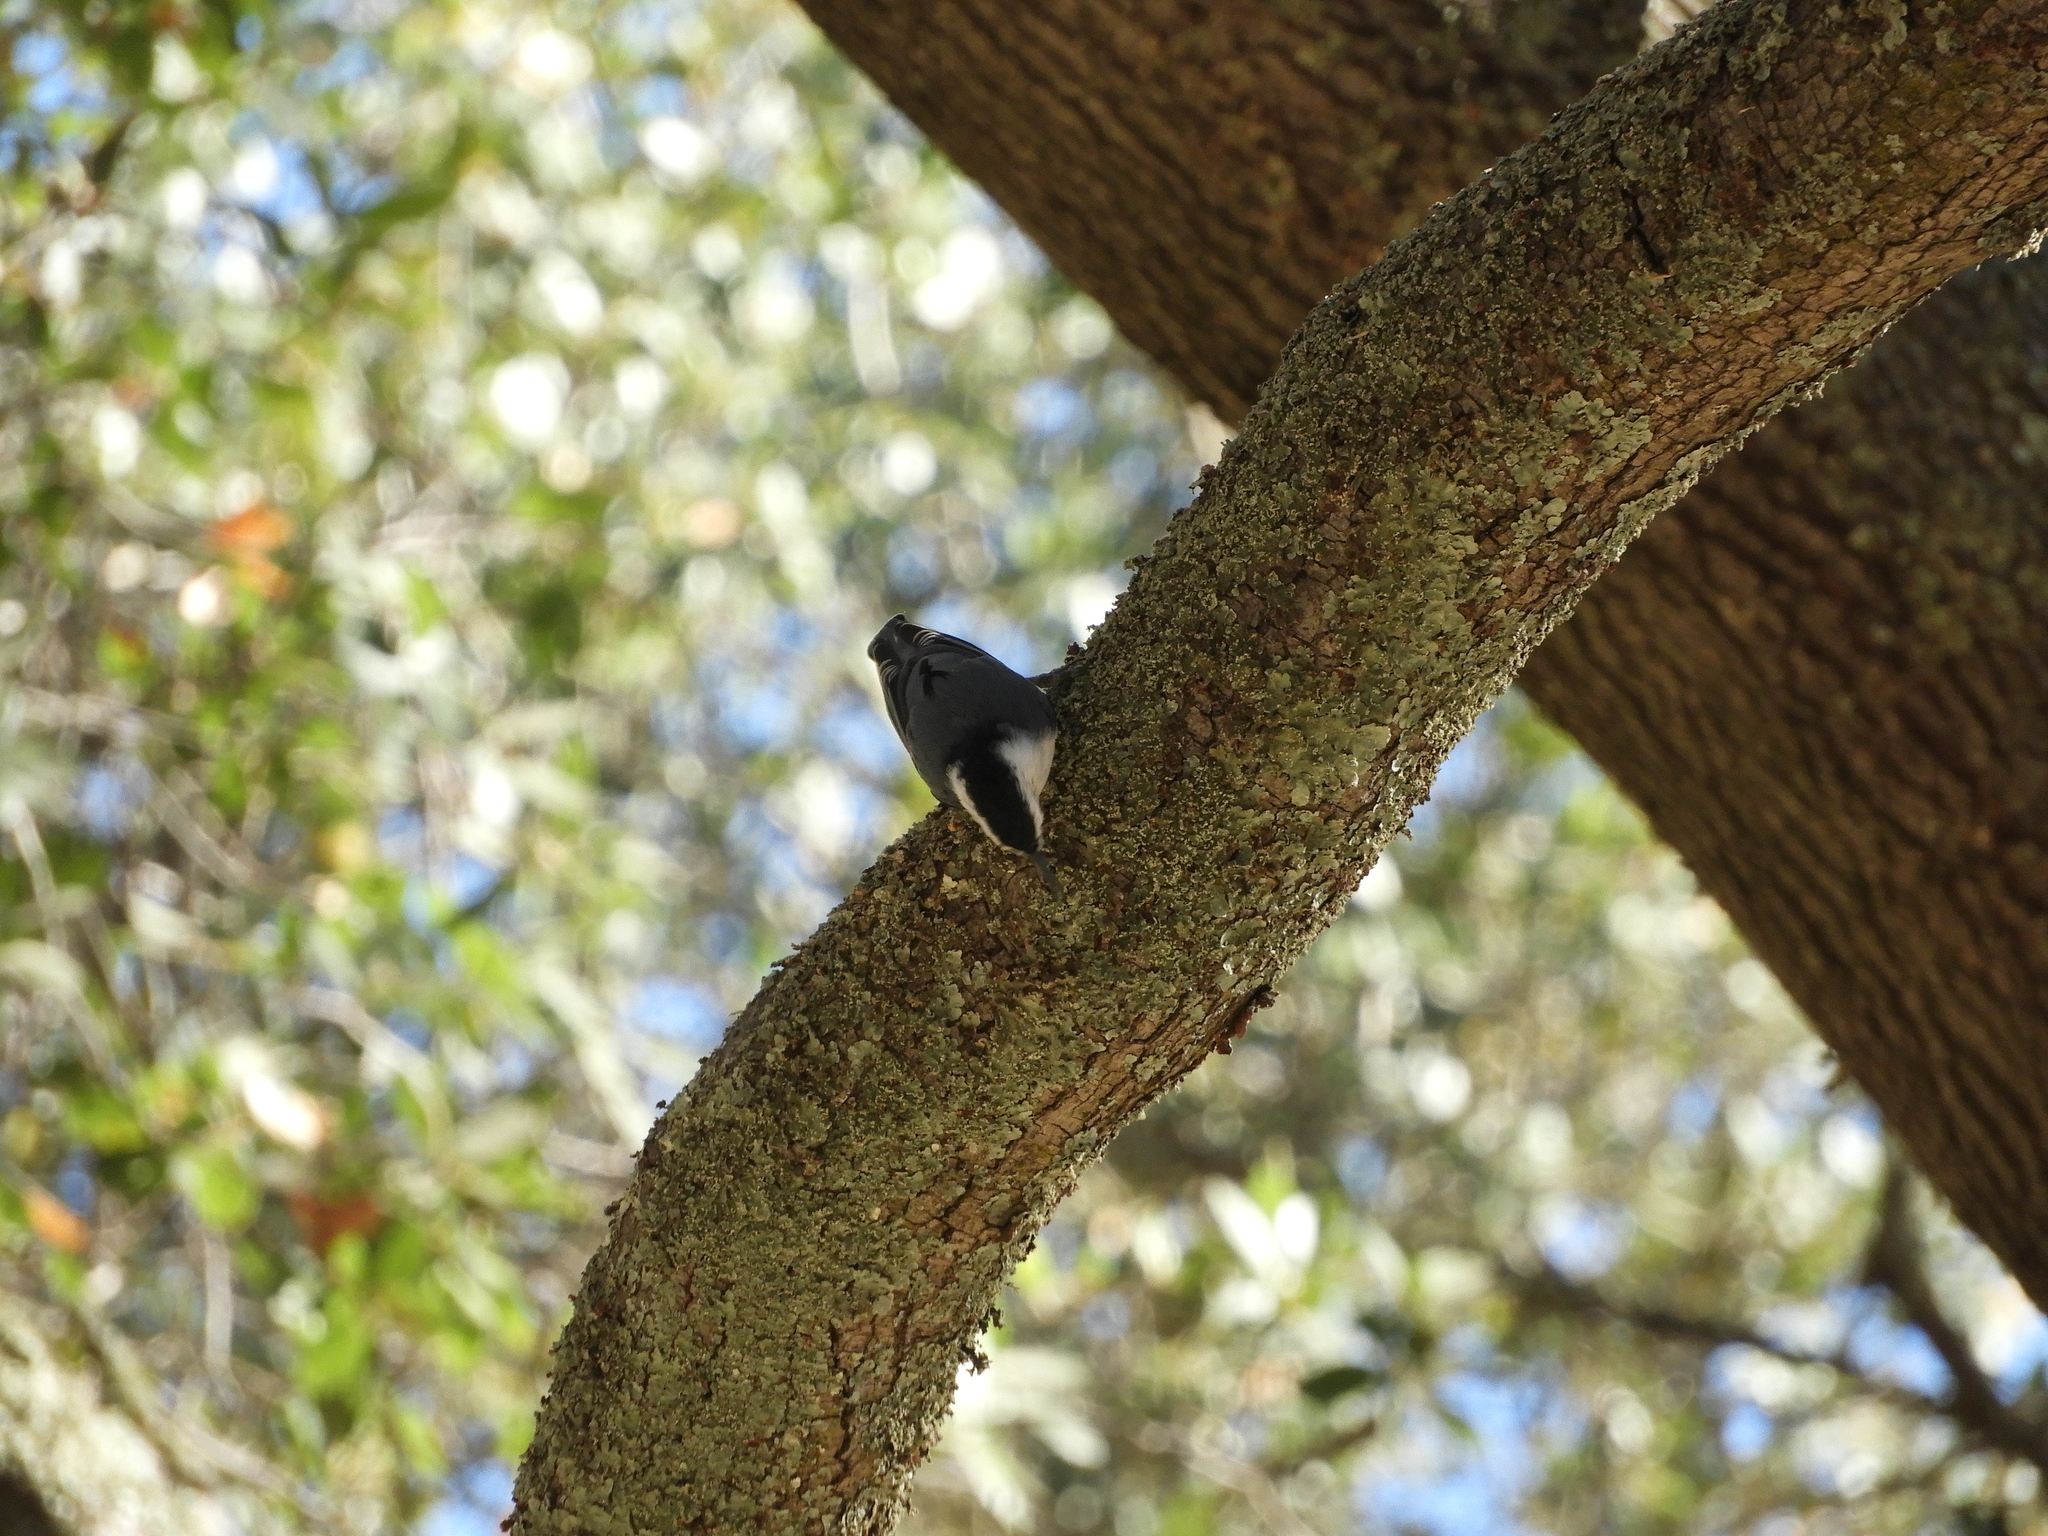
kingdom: Animalia
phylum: Chordata
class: Aves
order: Passeriformes
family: Sittidae
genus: Sitta
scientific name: Sitta carolinensis
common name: White-breasted nuthatch
